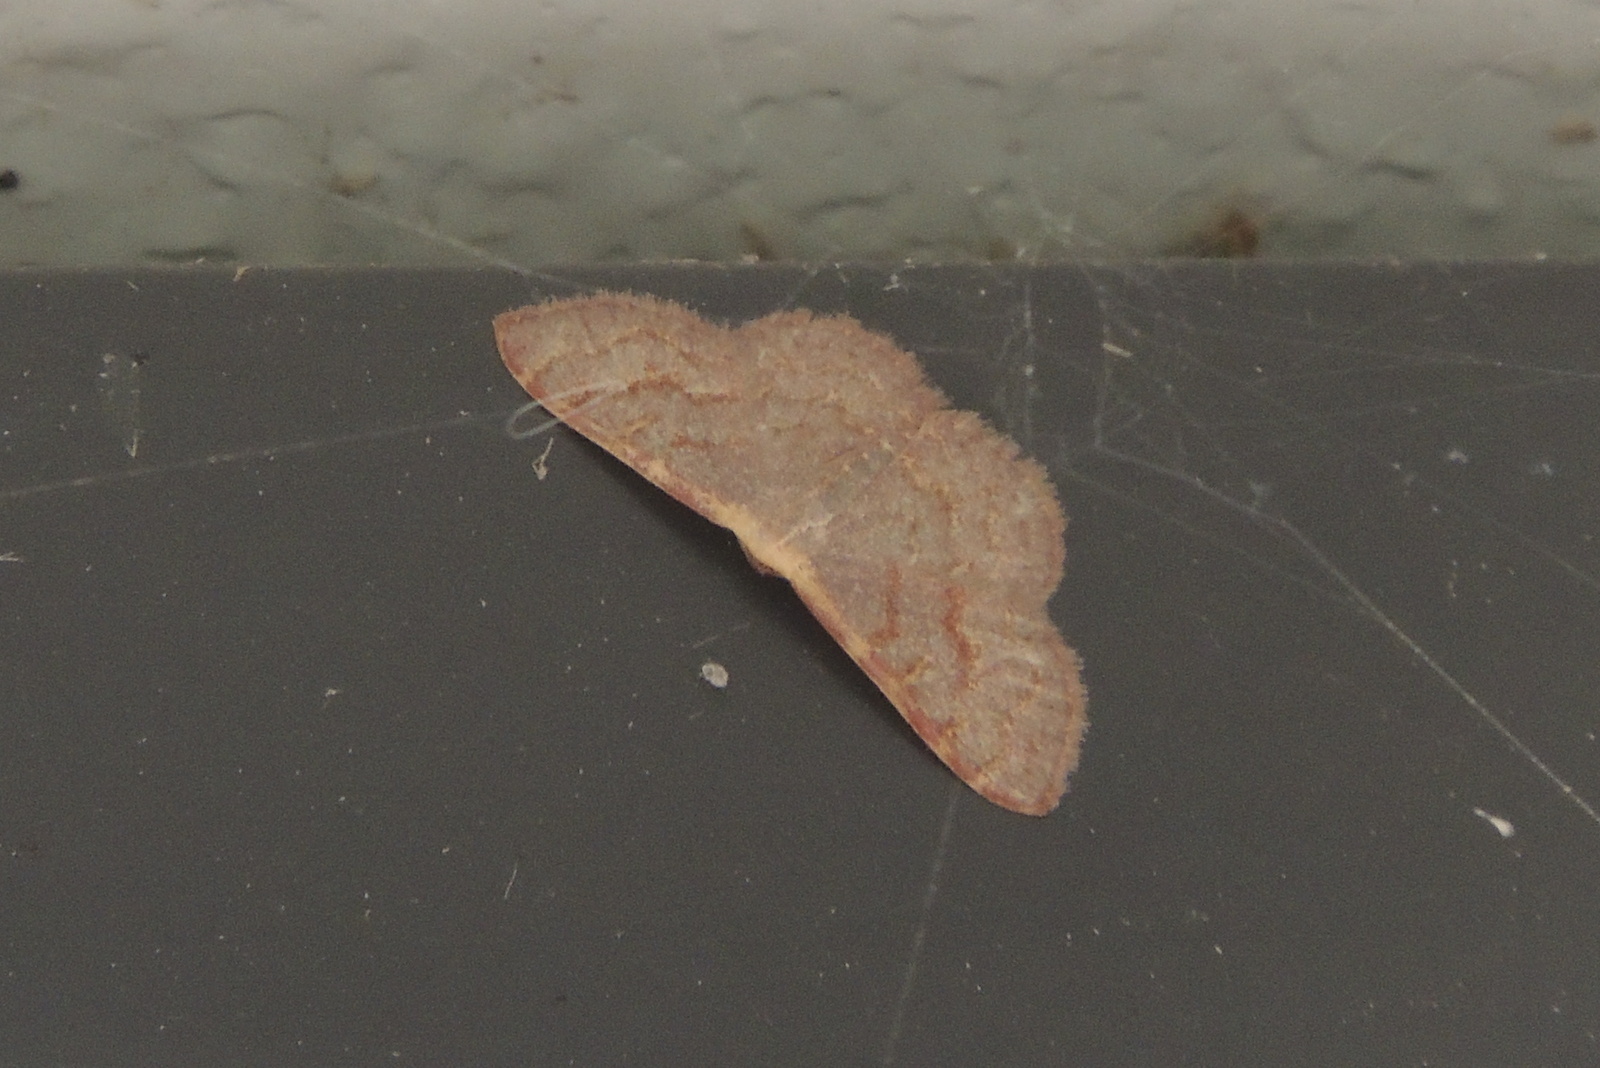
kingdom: Animalia
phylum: Arthropoda
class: Insecta
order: Lepidoptera
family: Geometridae
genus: Leptostales
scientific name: Leptostales pannaria
